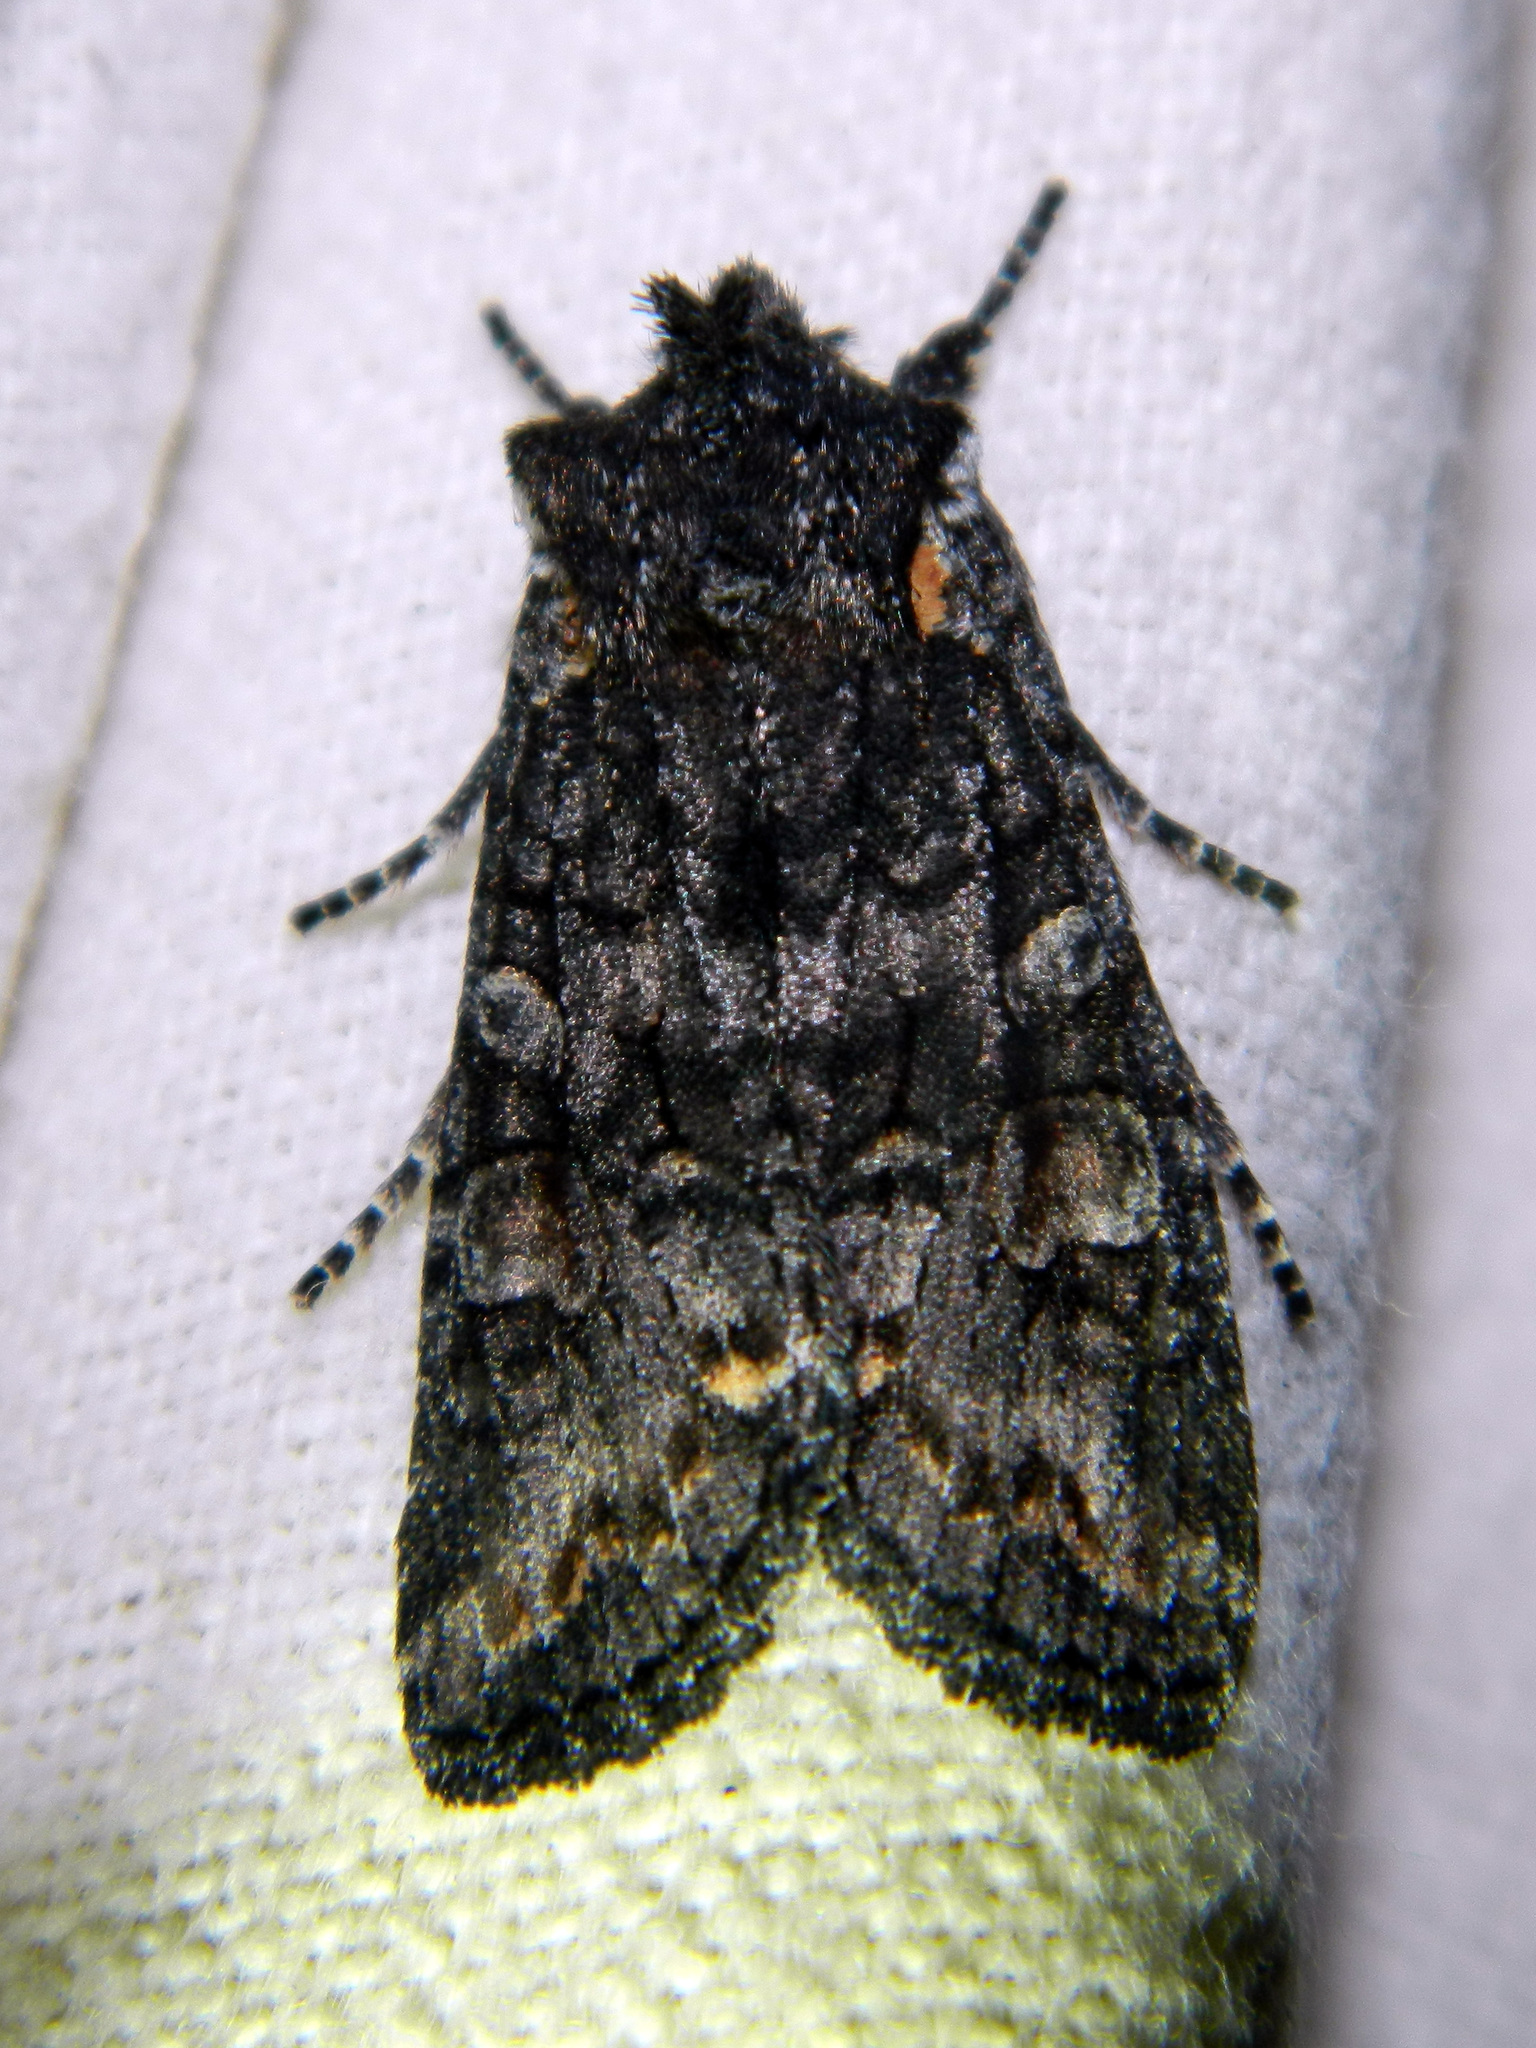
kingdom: Animalia
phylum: Arthropoda
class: Insecta
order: Lepidoptera
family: Noctuidae
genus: Lithophane
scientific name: Lithophane pexata
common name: Plush-naped pinion moth
